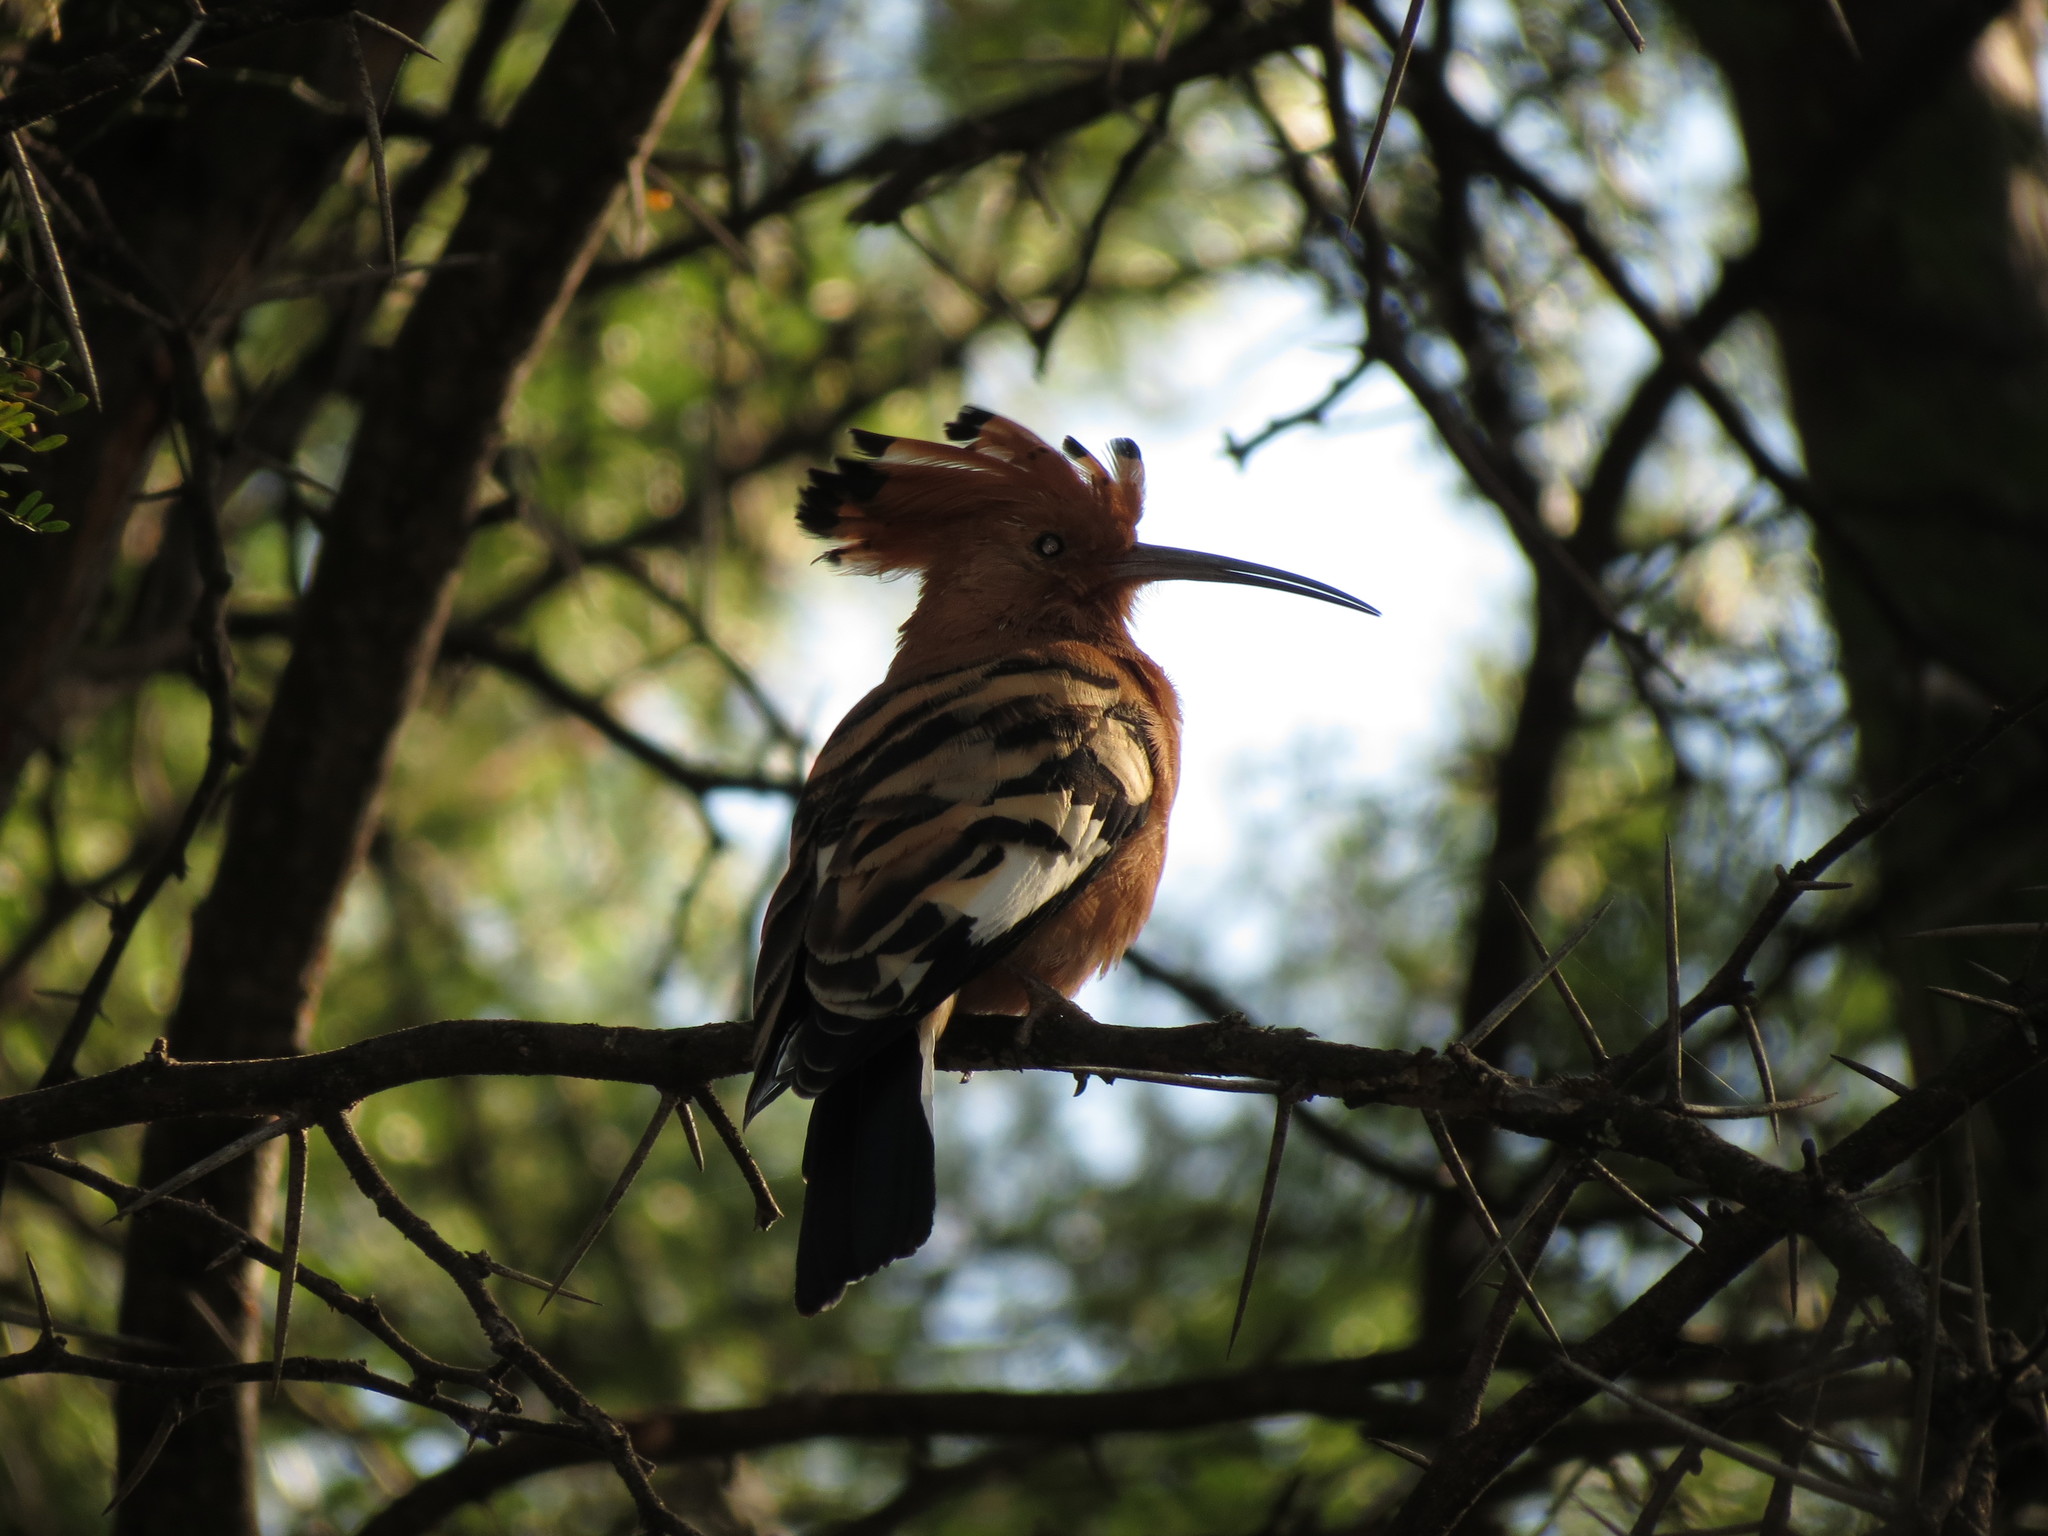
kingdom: Animalia
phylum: Chordata
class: Aves
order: Bucerotiformes
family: Upupidae
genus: Upupa
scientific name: Upupa africana
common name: African hoopoe
